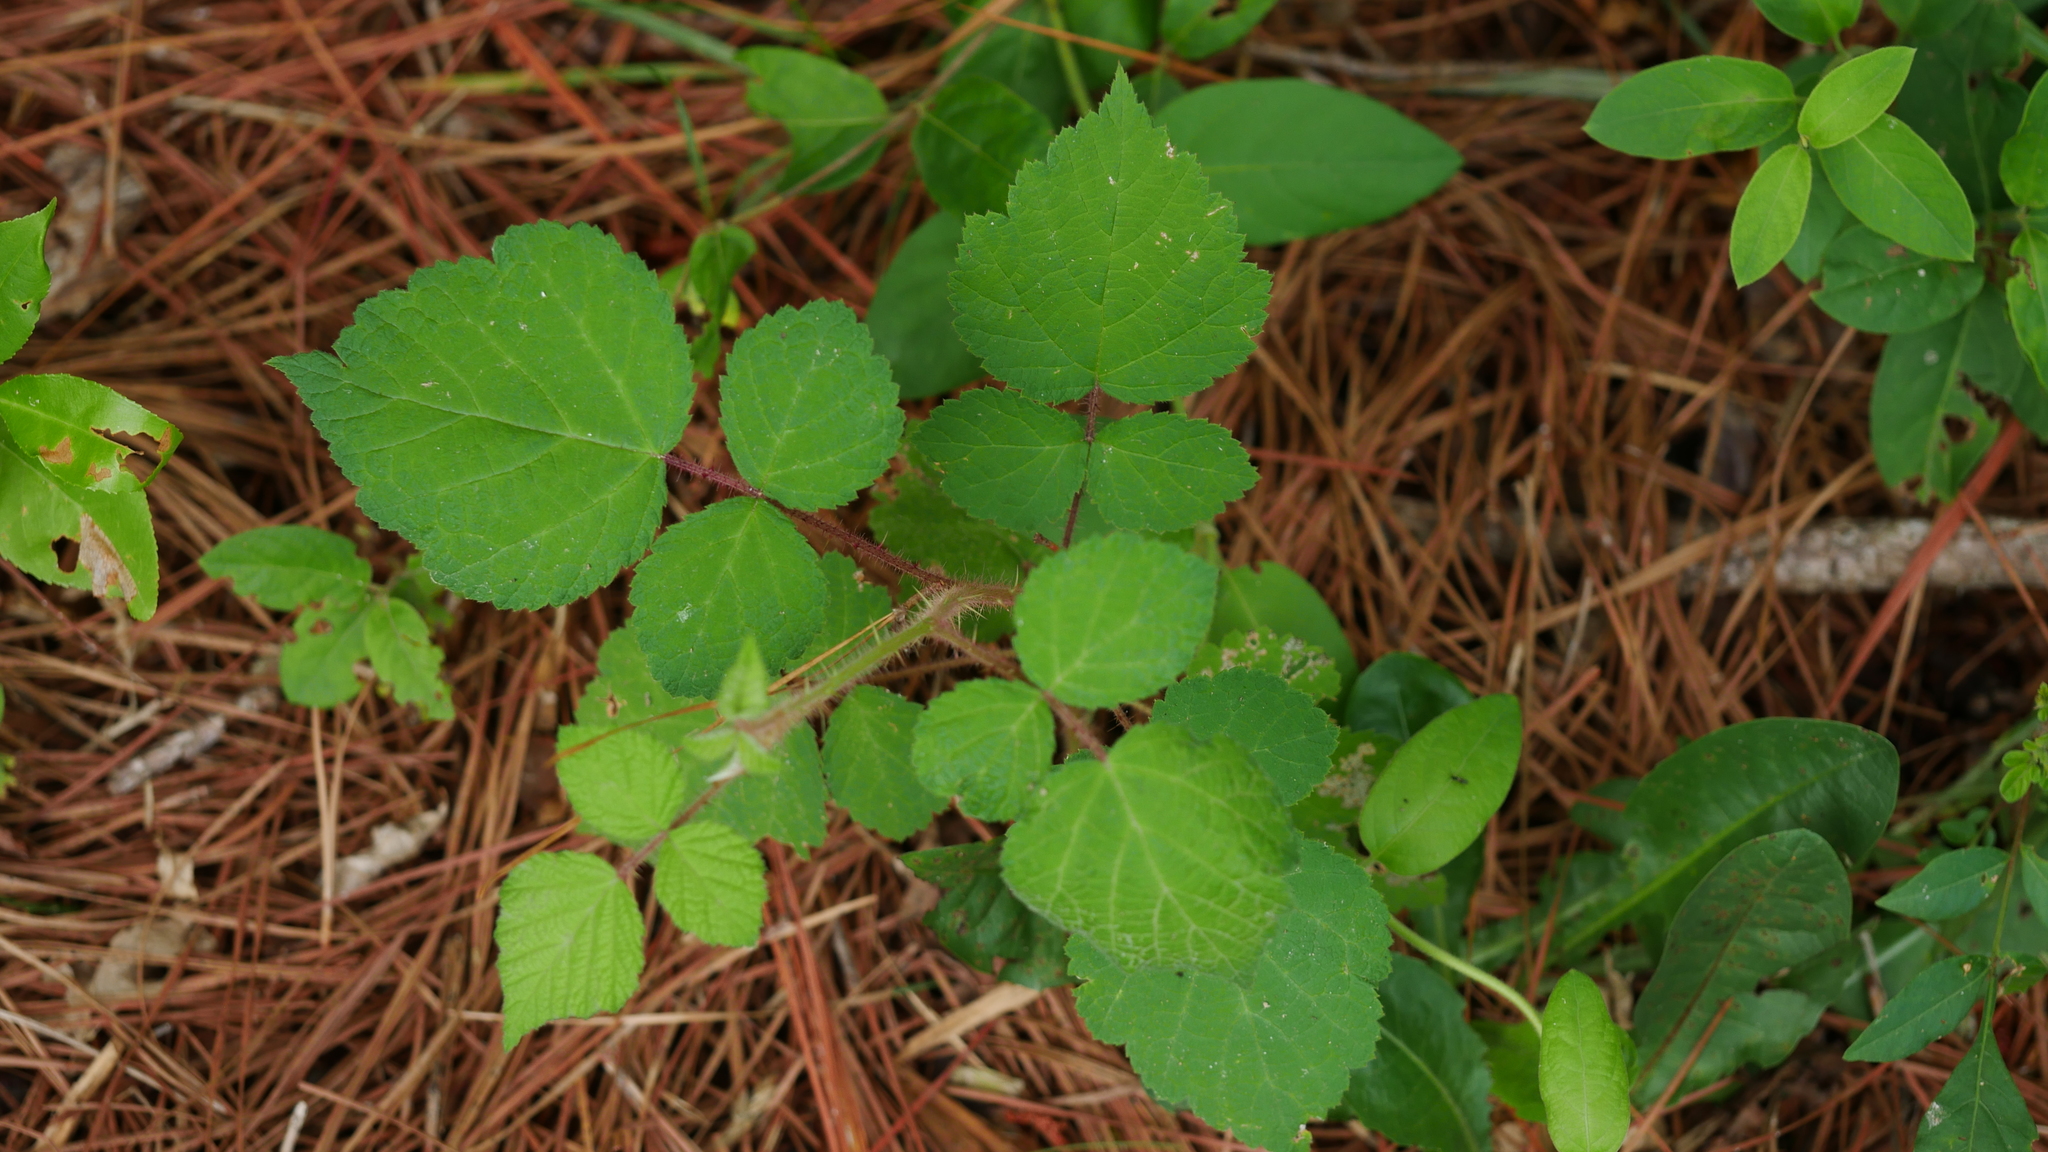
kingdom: Plantae
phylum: Tracheophyta
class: Magnoliopsida
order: Rosales
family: Rosaceae
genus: Rubus
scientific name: Rubus phoenicolasius
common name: Japanese wineberry
